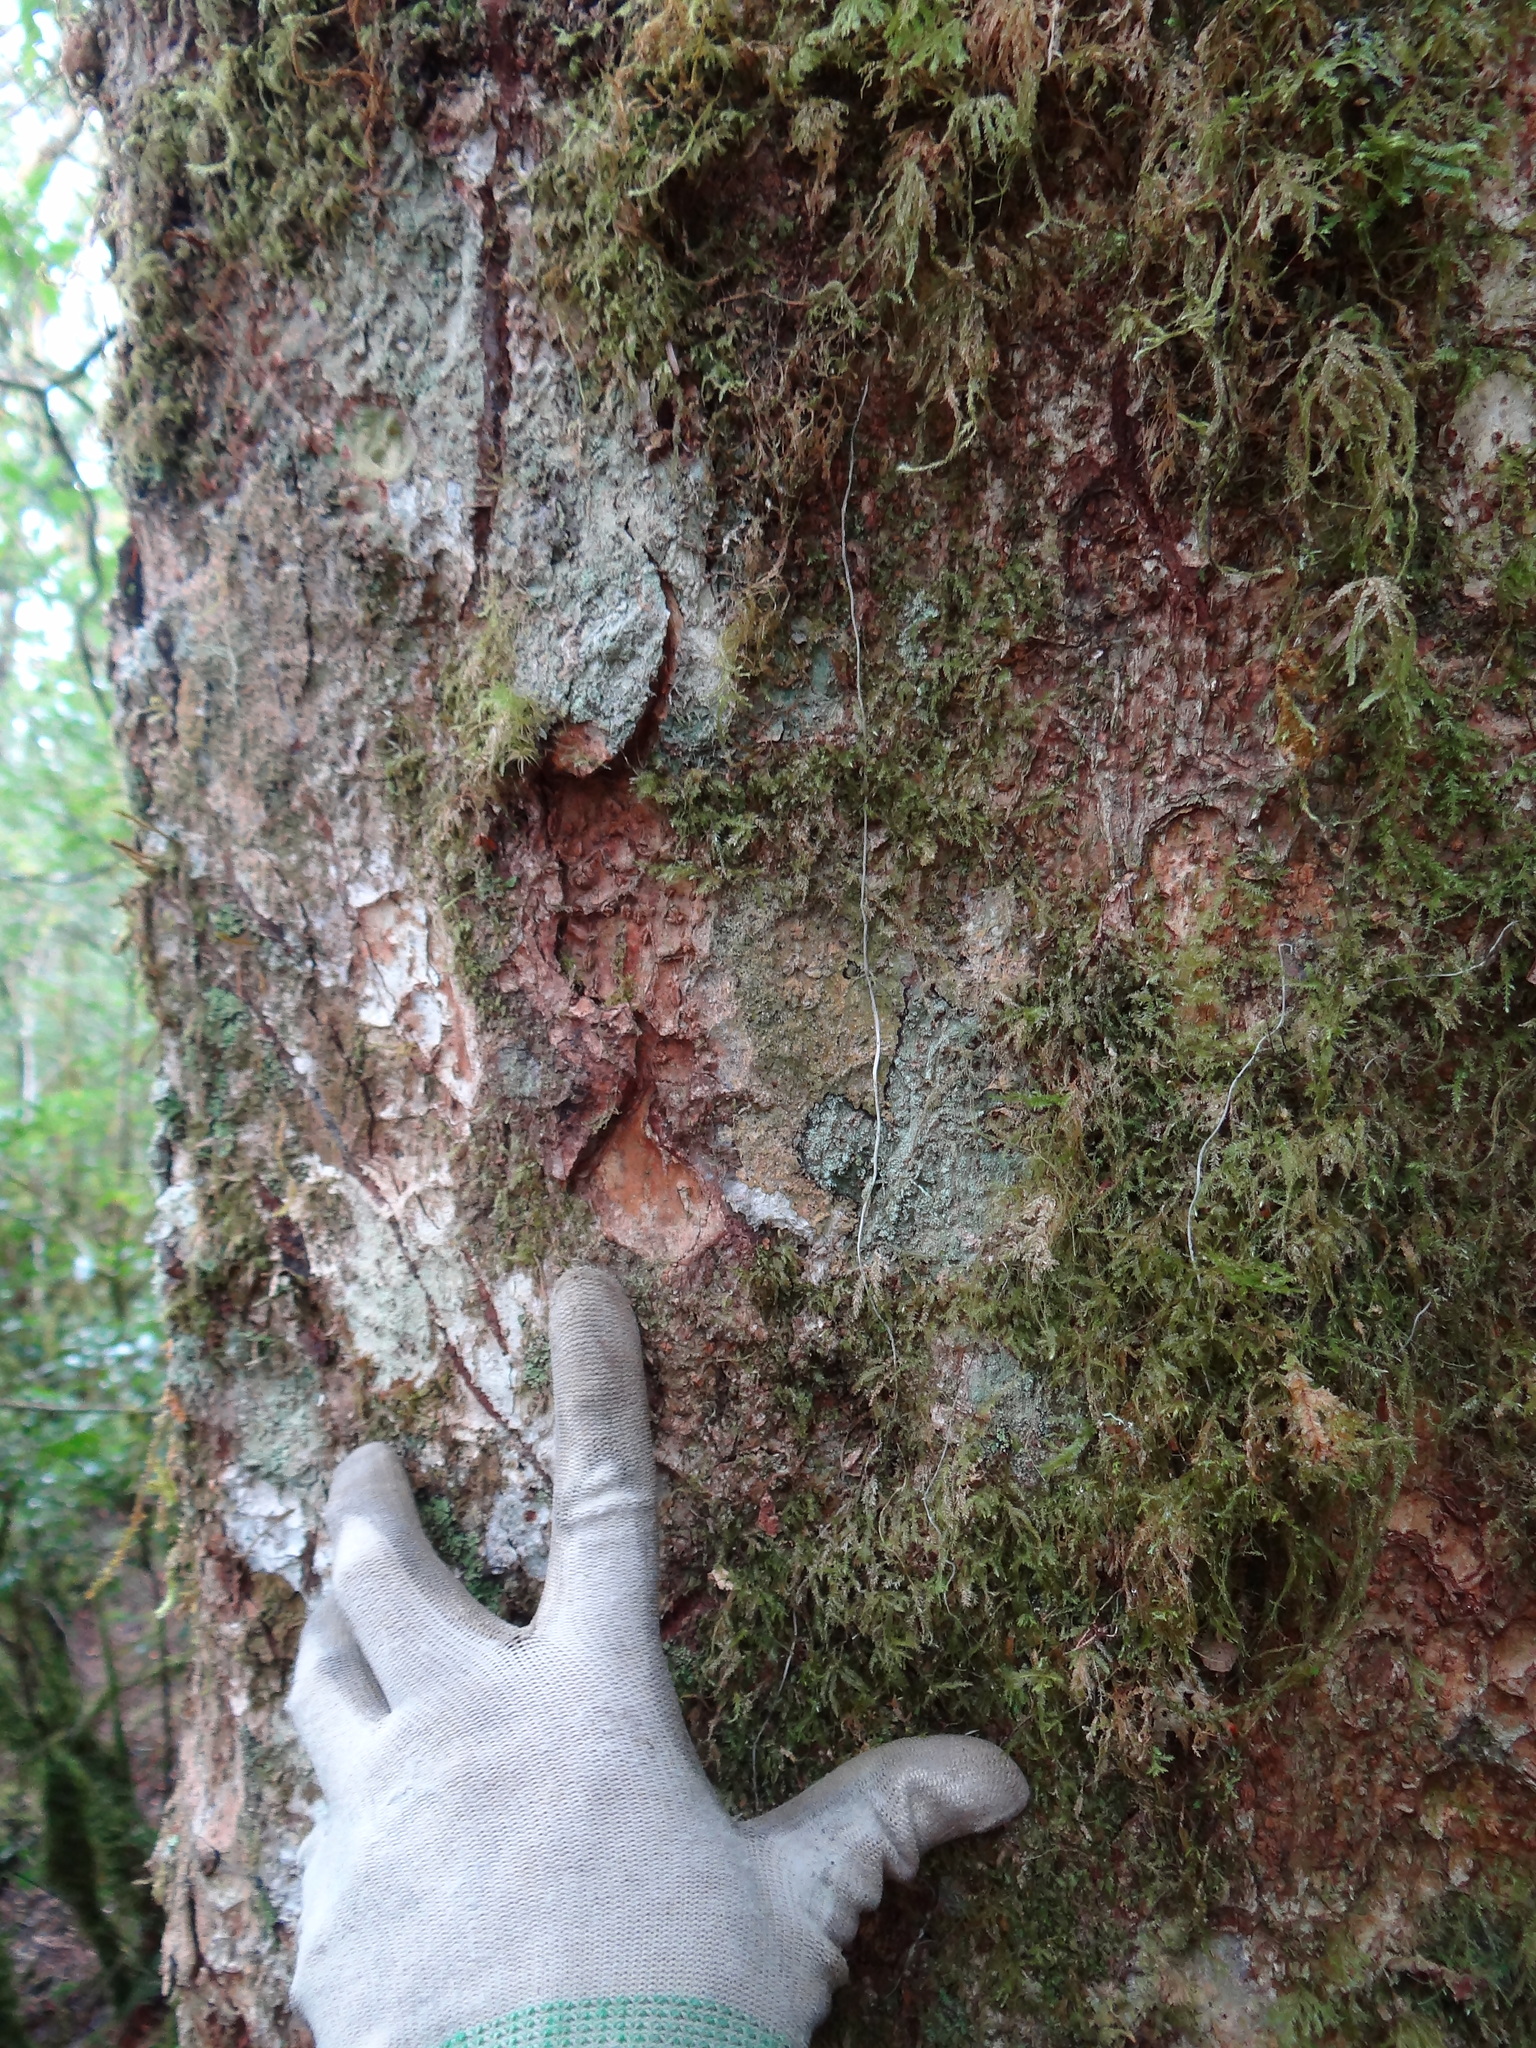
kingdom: Animalia
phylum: Chordata
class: Mammalia
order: Carnivora
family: Ursidae
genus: Ursus
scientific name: Ursus thibetanus
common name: Asiatic black bear
